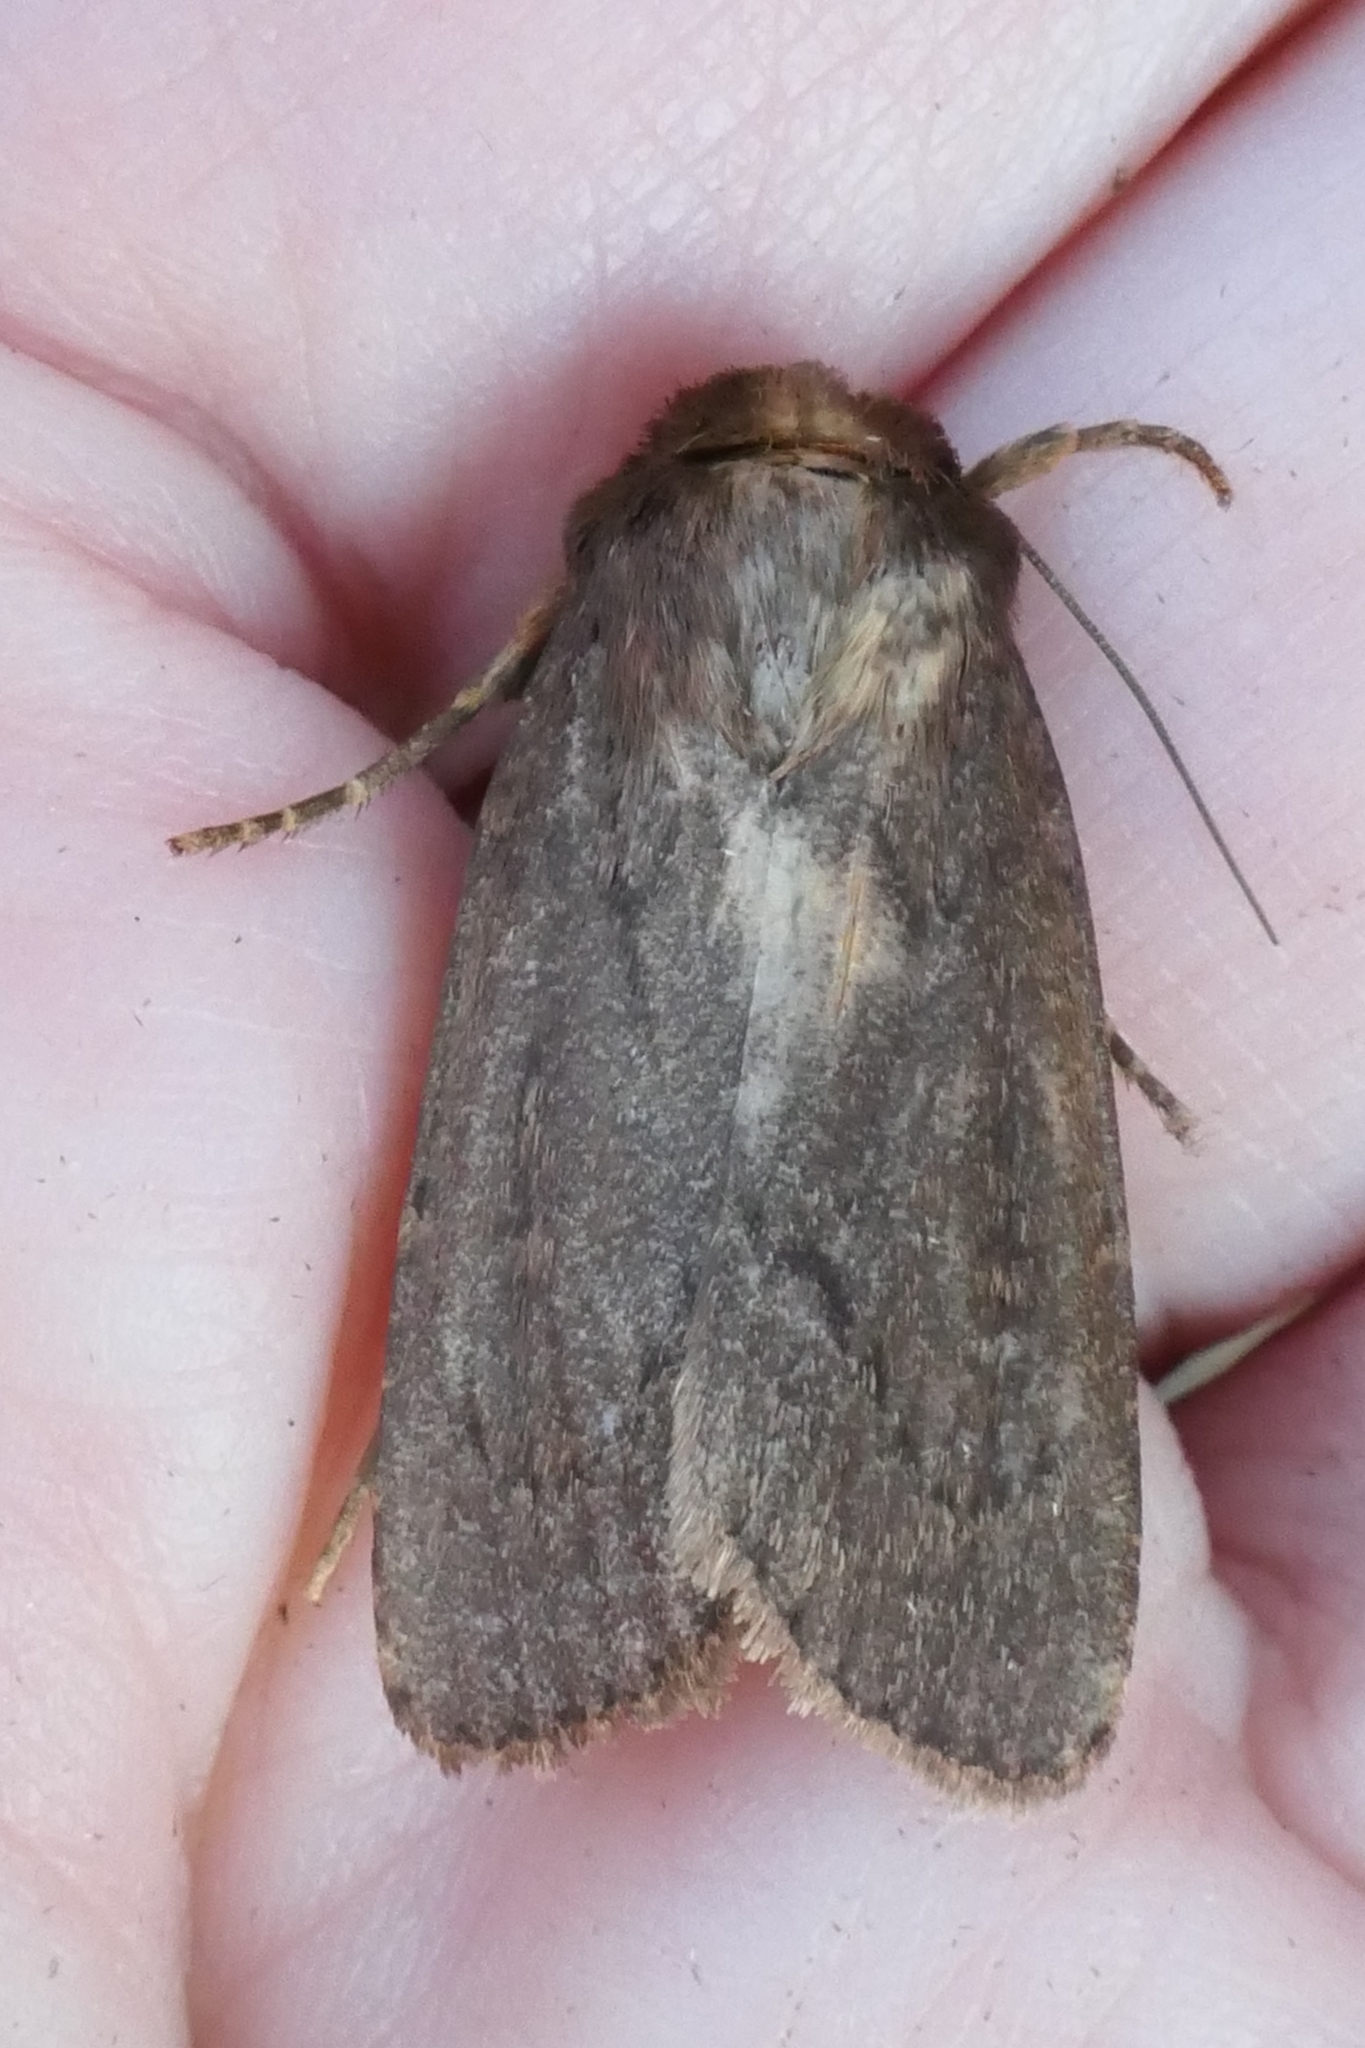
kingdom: Animalia
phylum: Arthropoda
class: Insecta
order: Lepidoptera
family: Noctuidae
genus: Bityla
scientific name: Bityla defigurata
